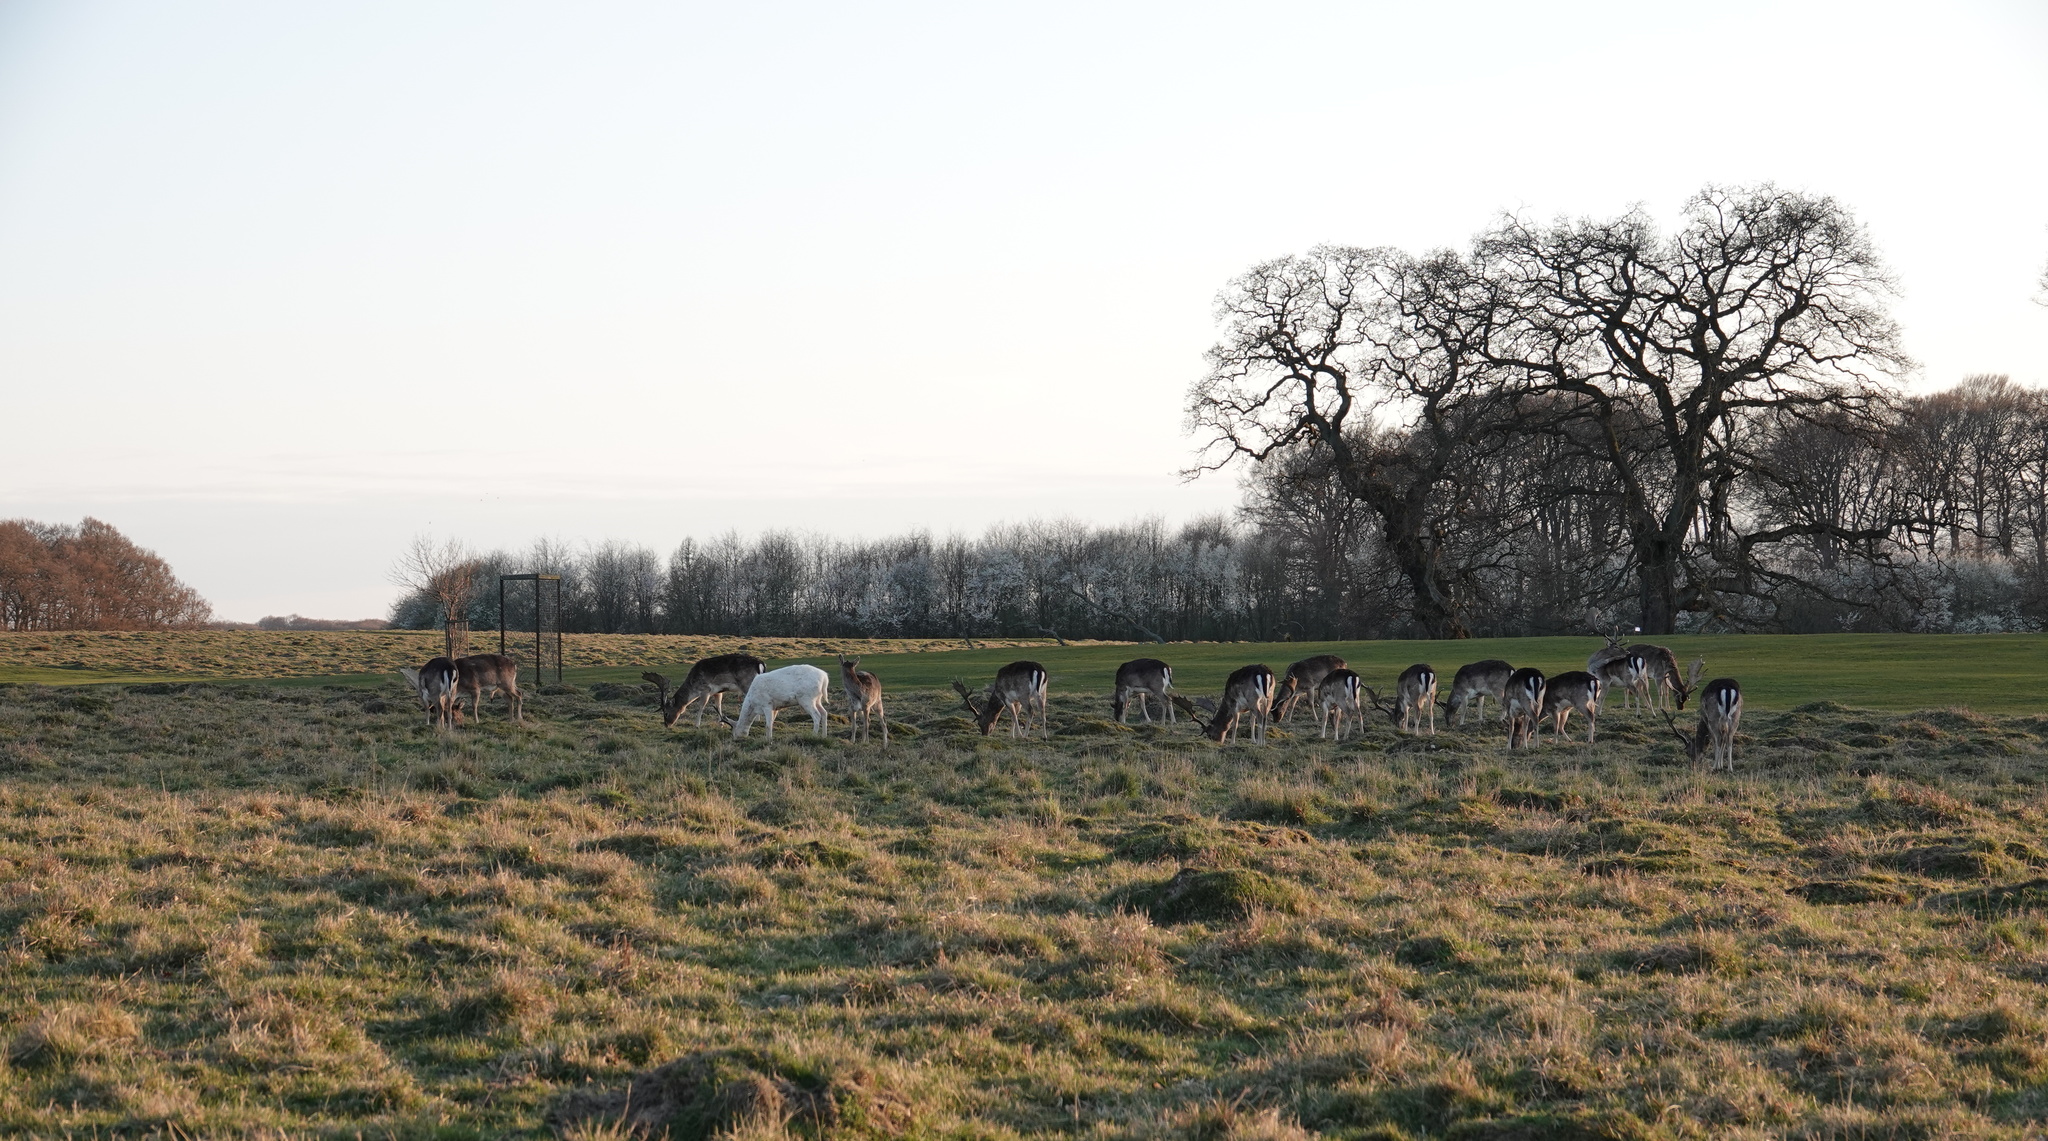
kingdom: Animalia
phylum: Chordata
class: Mammalia
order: Artiodactyla
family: Cervidae
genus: Dama
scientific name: Dama dama
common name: Fallow deer
